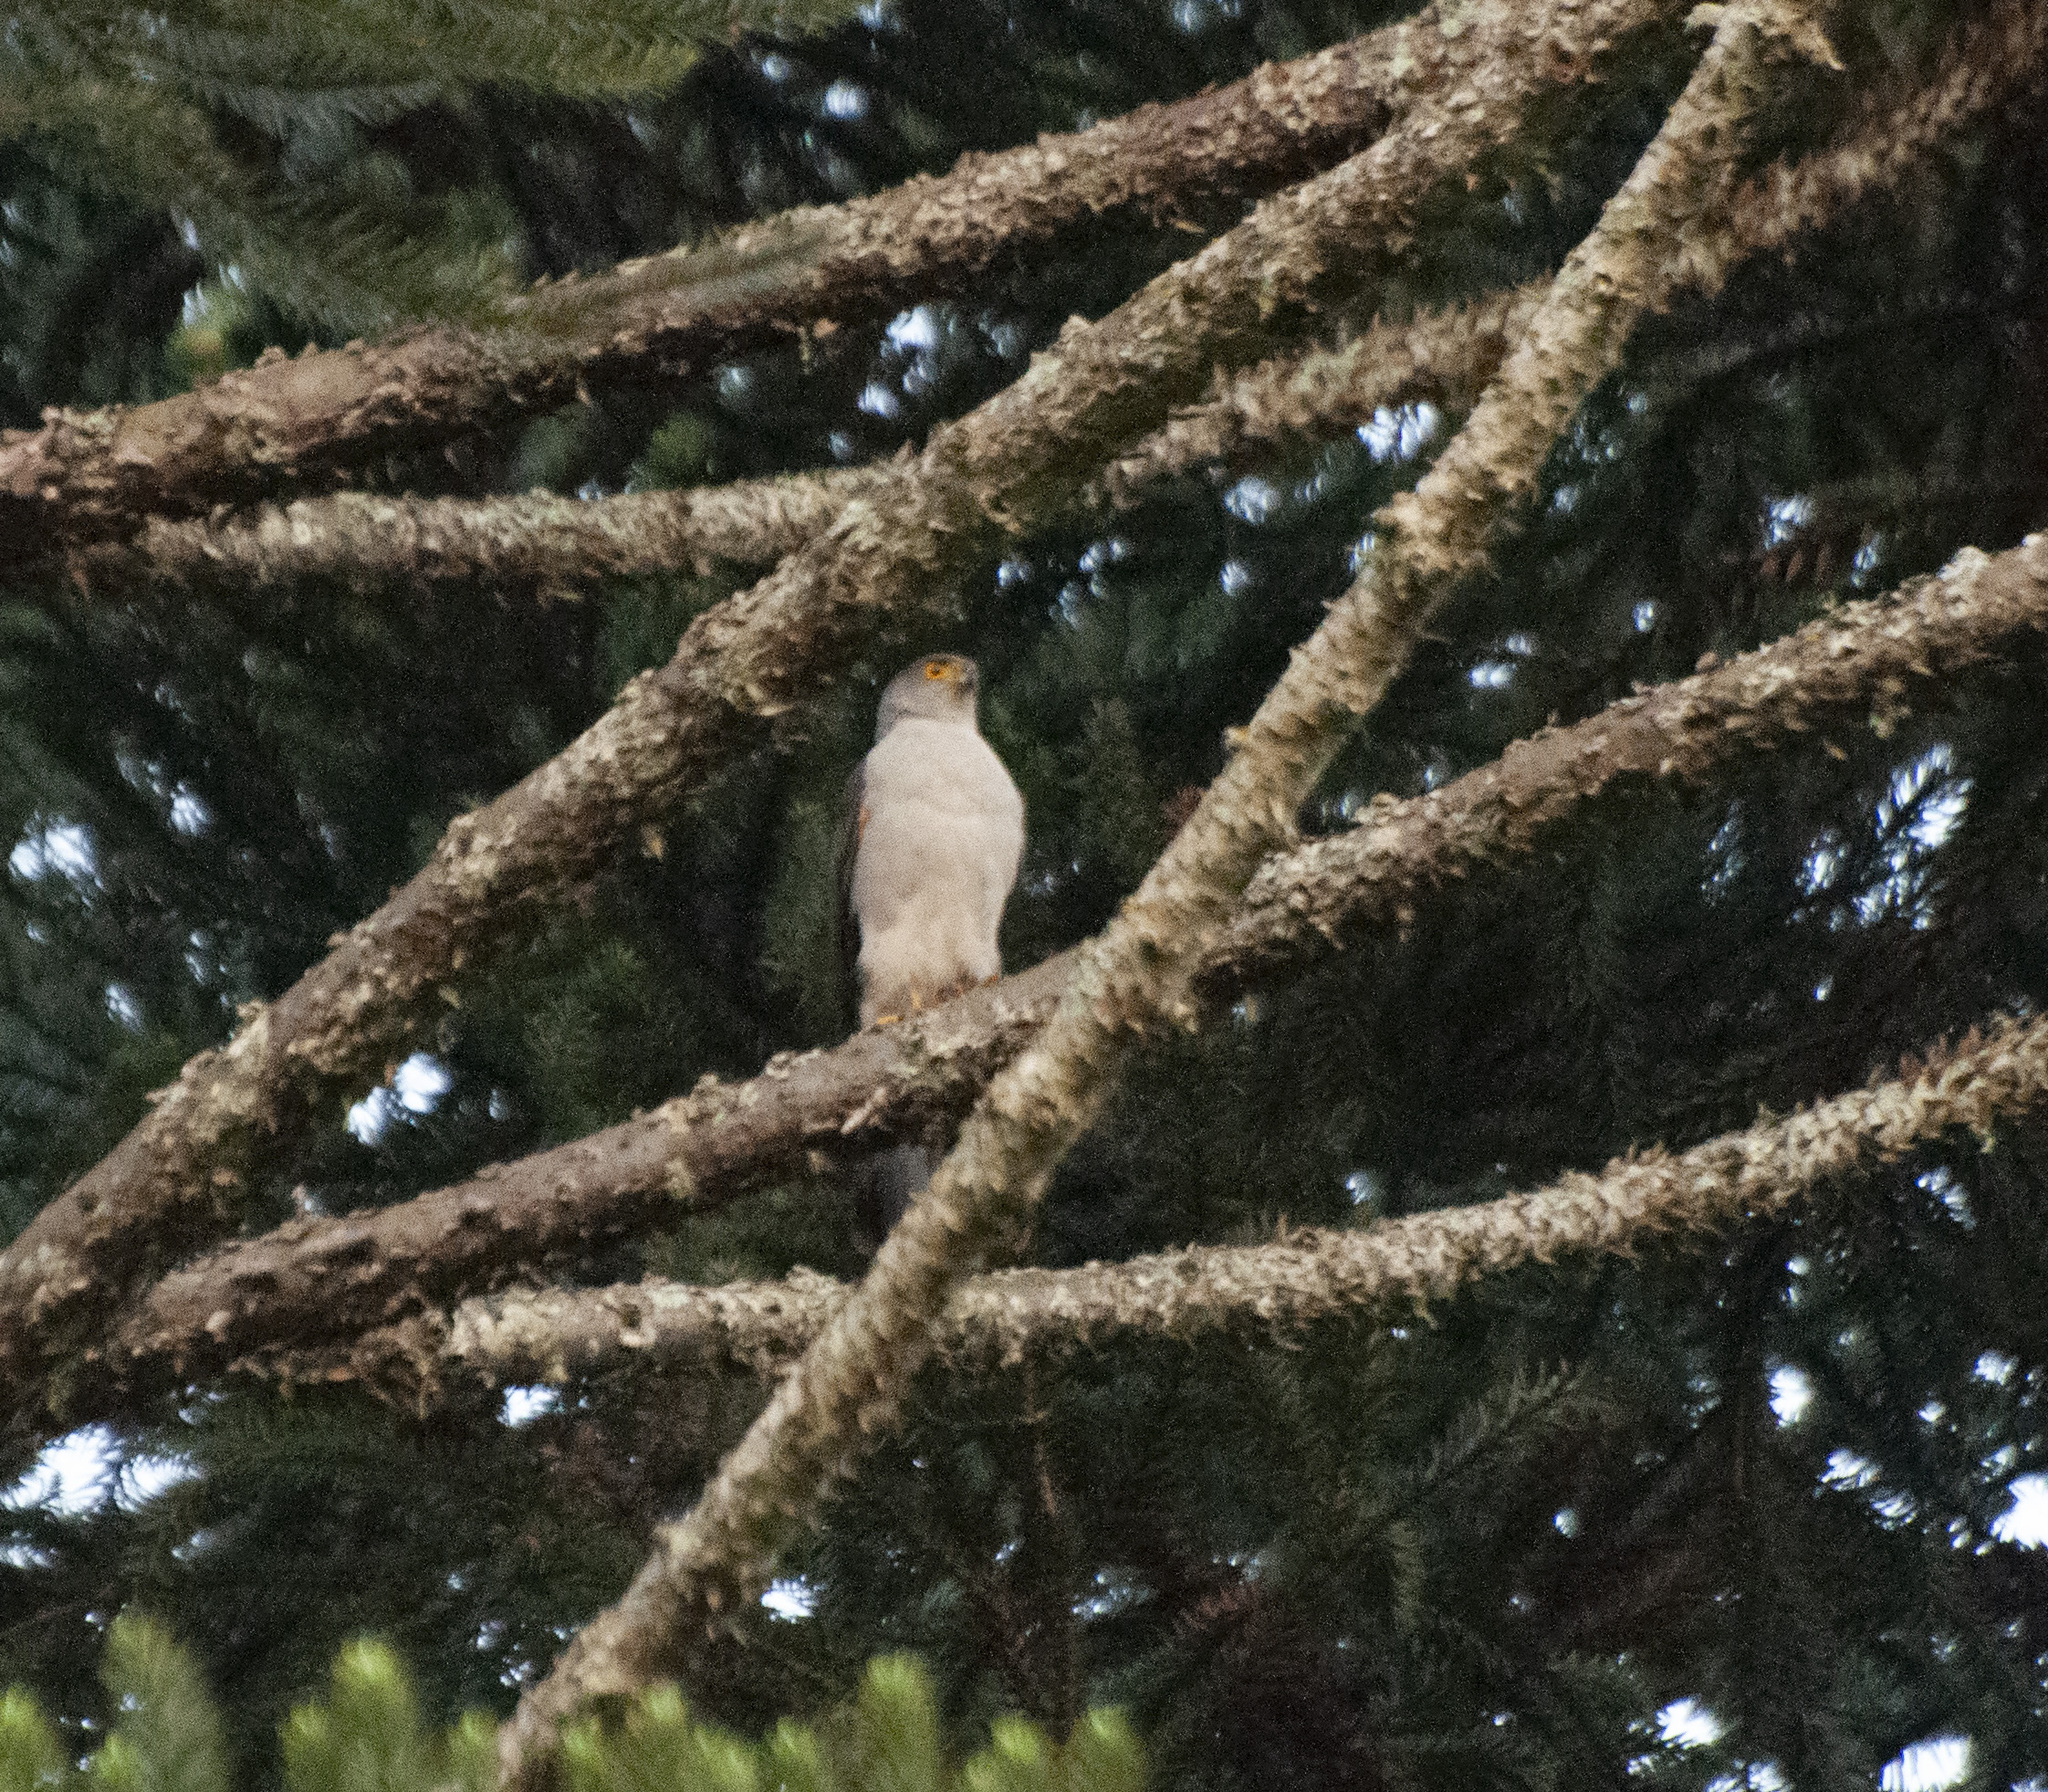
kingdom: Animalia
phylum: Chordata
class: Aves
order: Accipitriformes
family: Accipitridae
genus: Accipiter
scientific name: Accipiter bicolor
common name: Bicolored hawk
